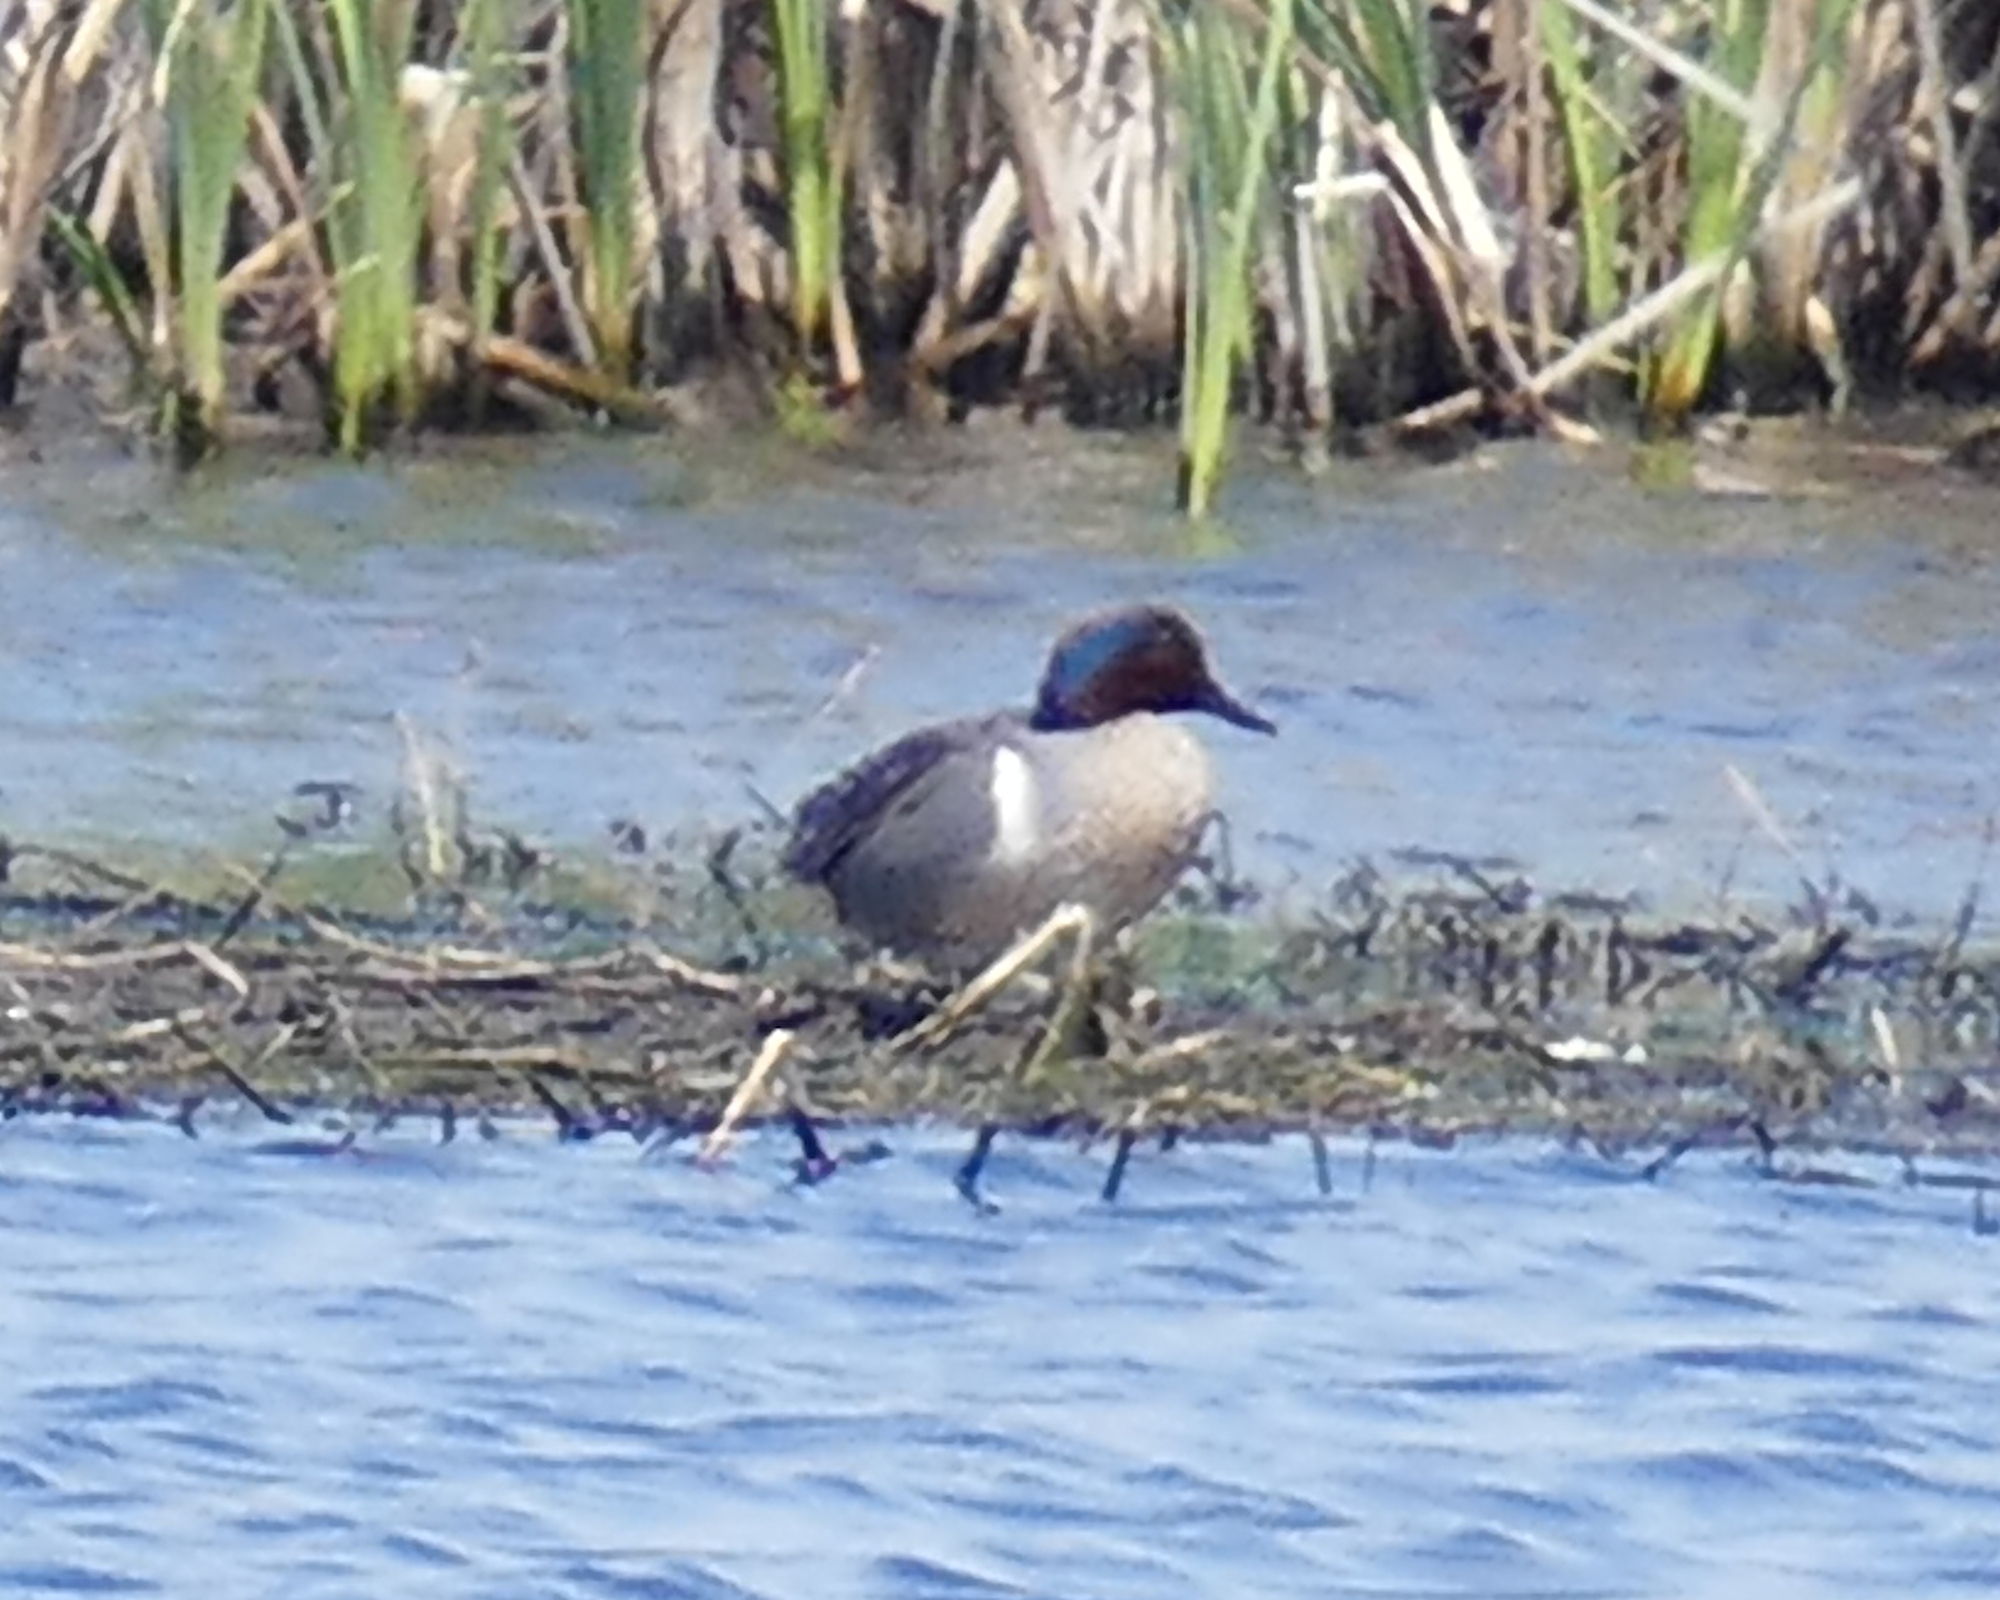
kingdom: Animalia
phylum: Chordata
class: Aves
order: Anseriformes
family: Anatidae
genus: Anas
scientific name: Anas crecca
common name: Eurasian teal
